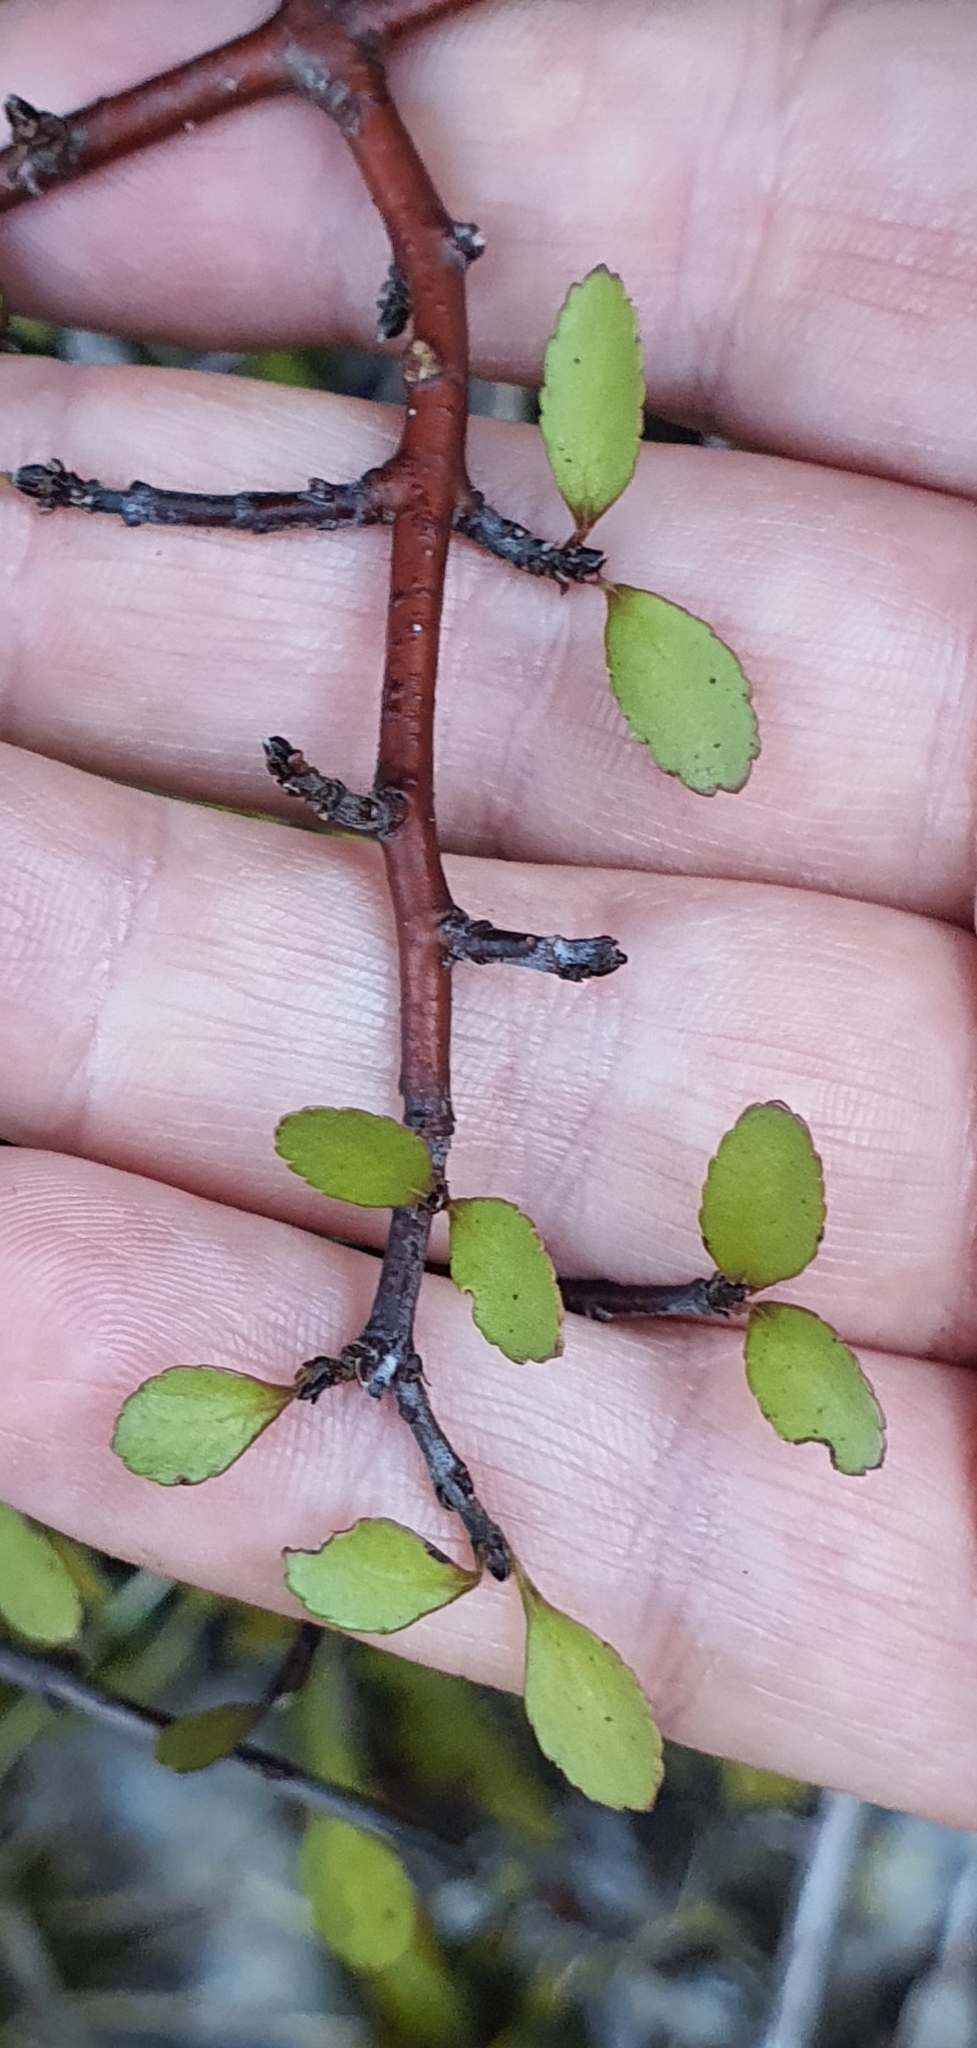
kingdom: Plantae
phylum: Tracheophyta
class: Magnoliopsida
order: Oxalidales
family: Elaeocarpaceae
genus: Aristotelia
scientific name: Aristotelia fruticosa
